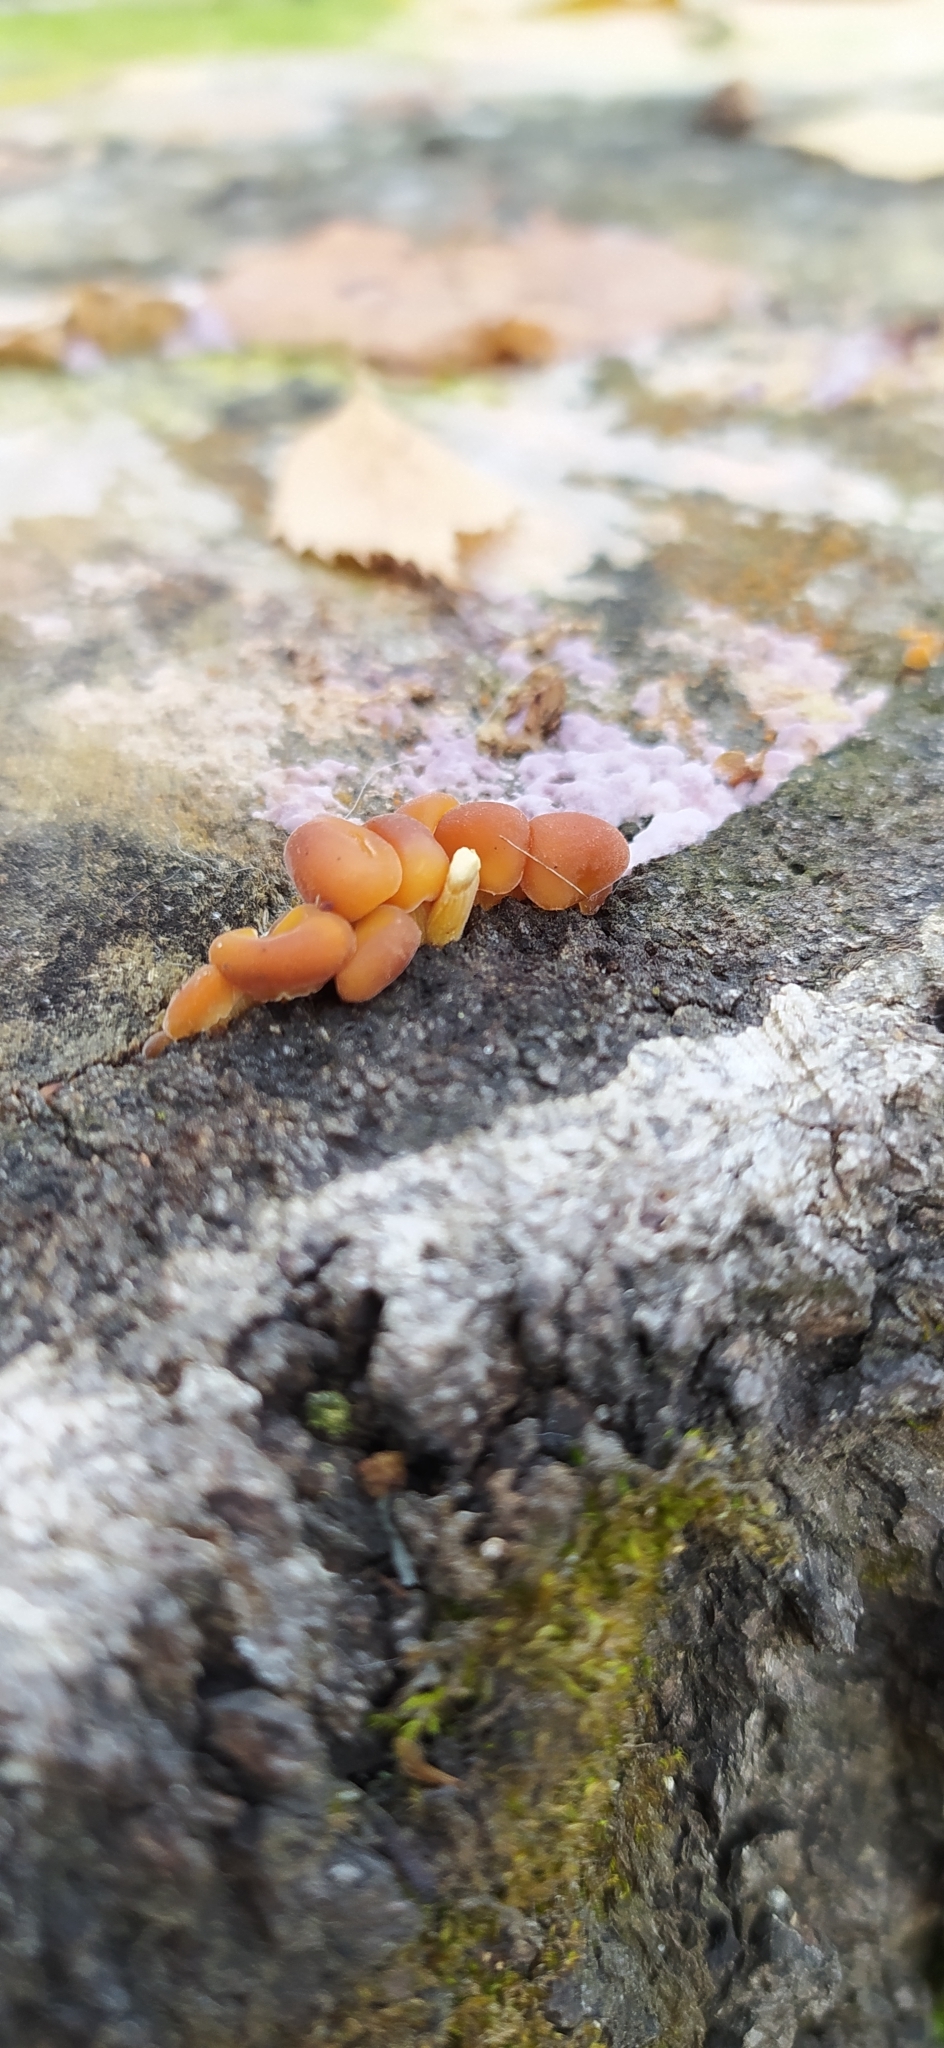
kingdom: Fungi
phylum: Basidiomycota
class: Agaricomycetes
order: Agaricales
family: Physalacriaceae
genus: Flammulina
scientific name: Flammulina
